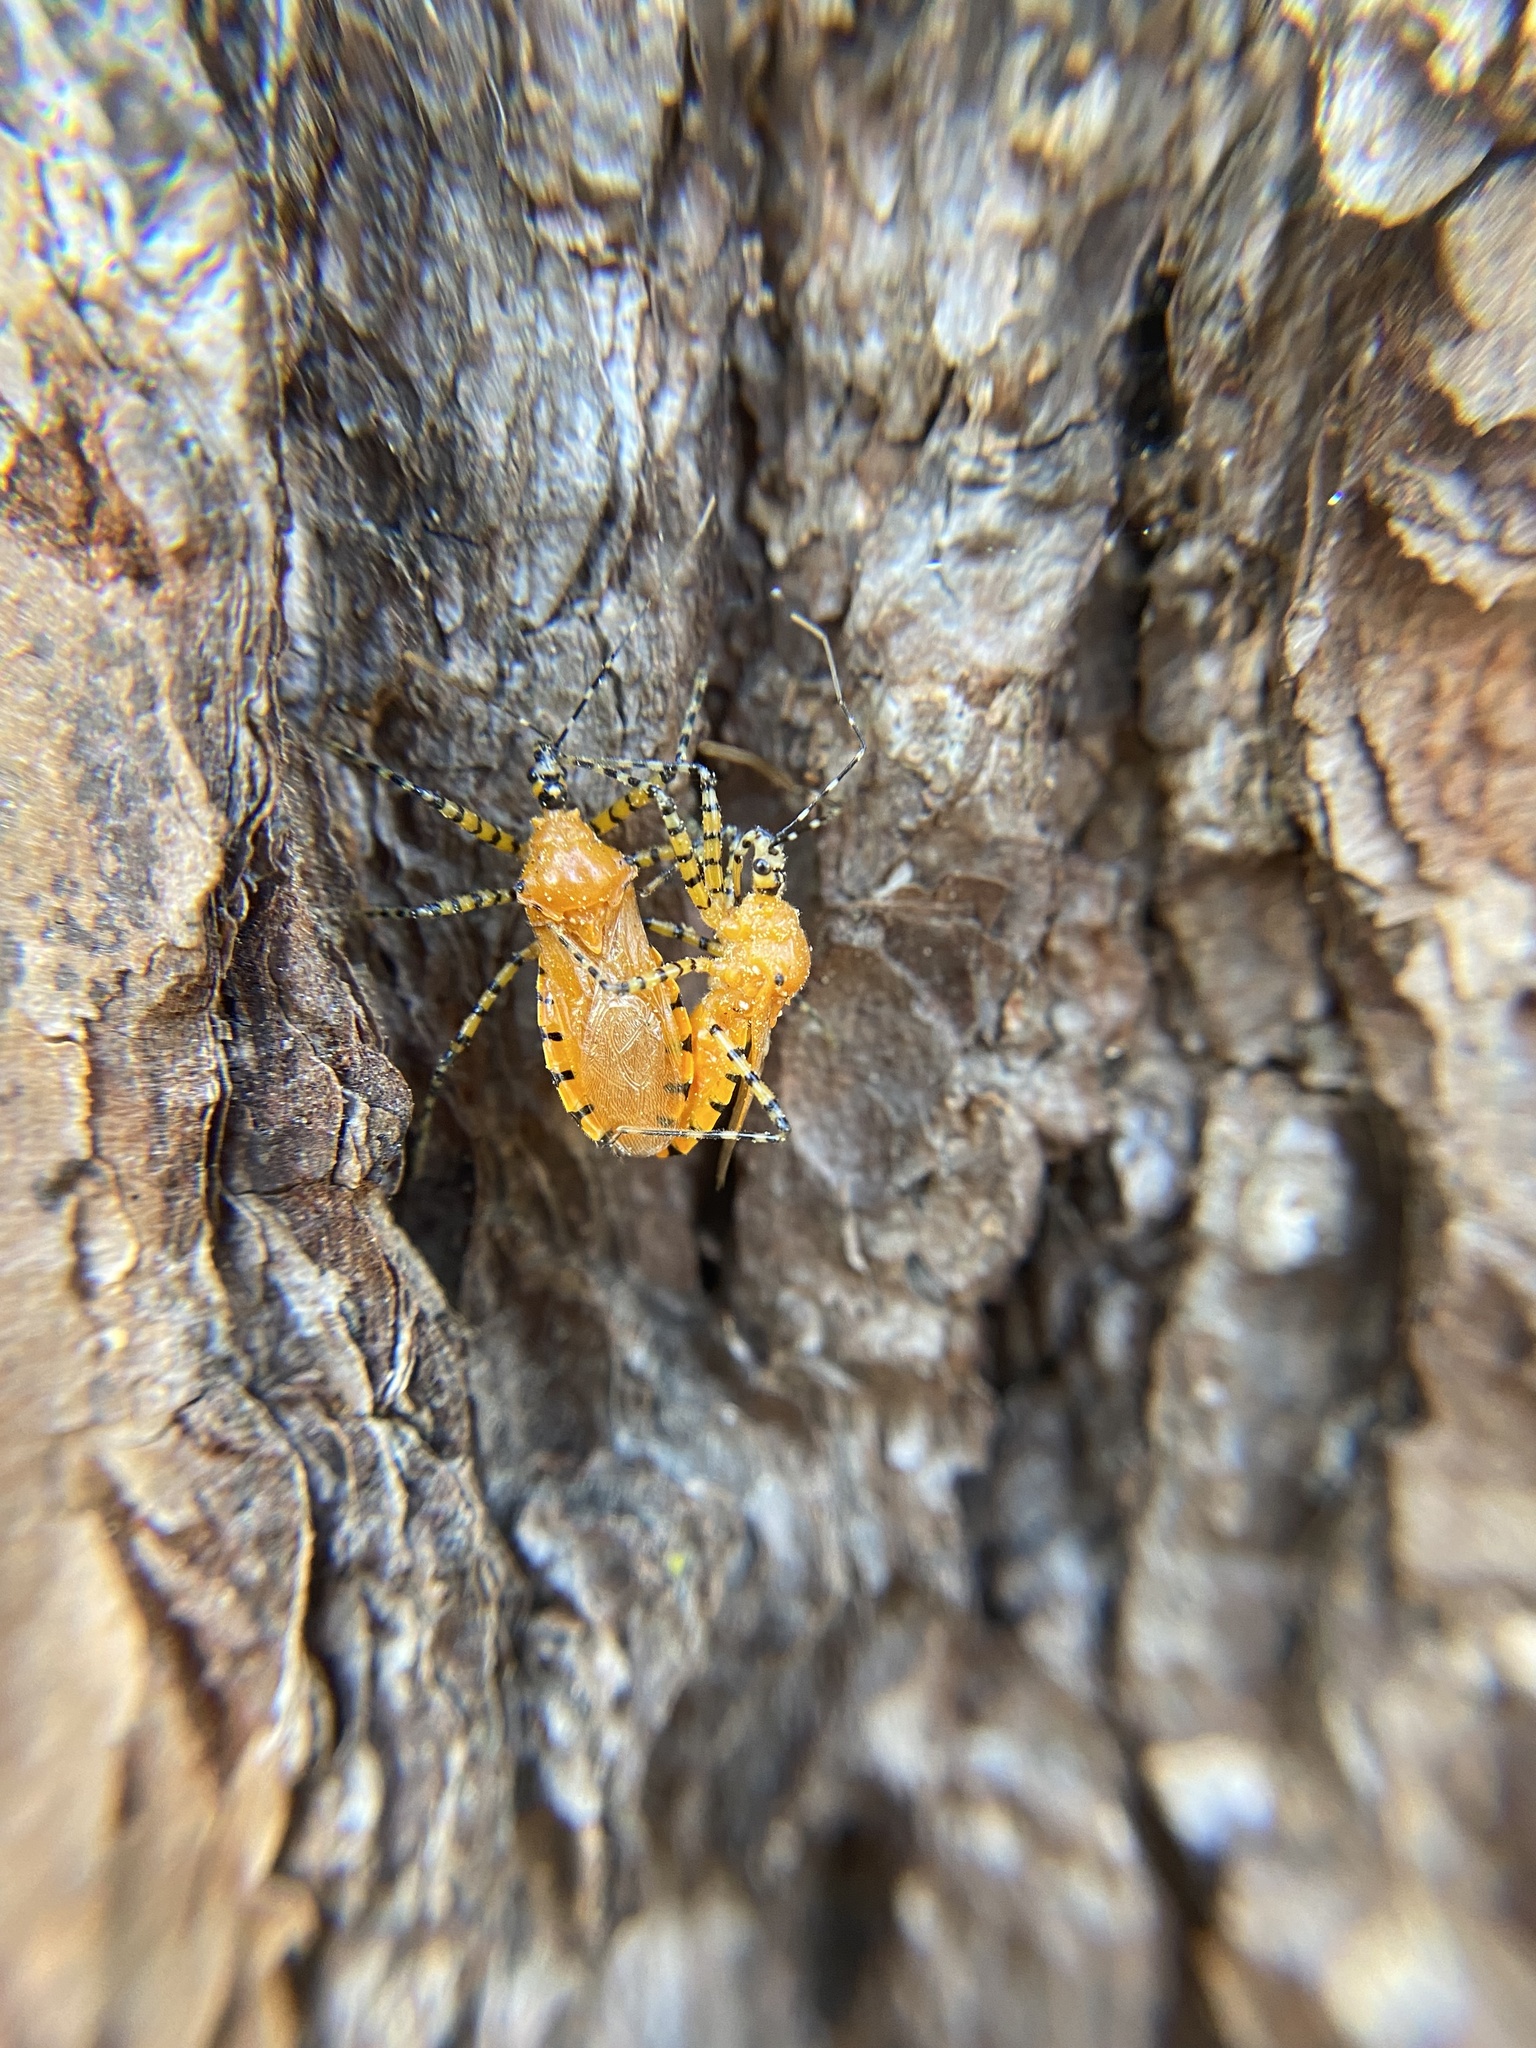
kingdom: Animalia
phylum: Arthropoda
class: Insecta
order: Hemiptera
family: Reduviidae
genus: Pselliopus
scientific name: Pselliopus barberi
